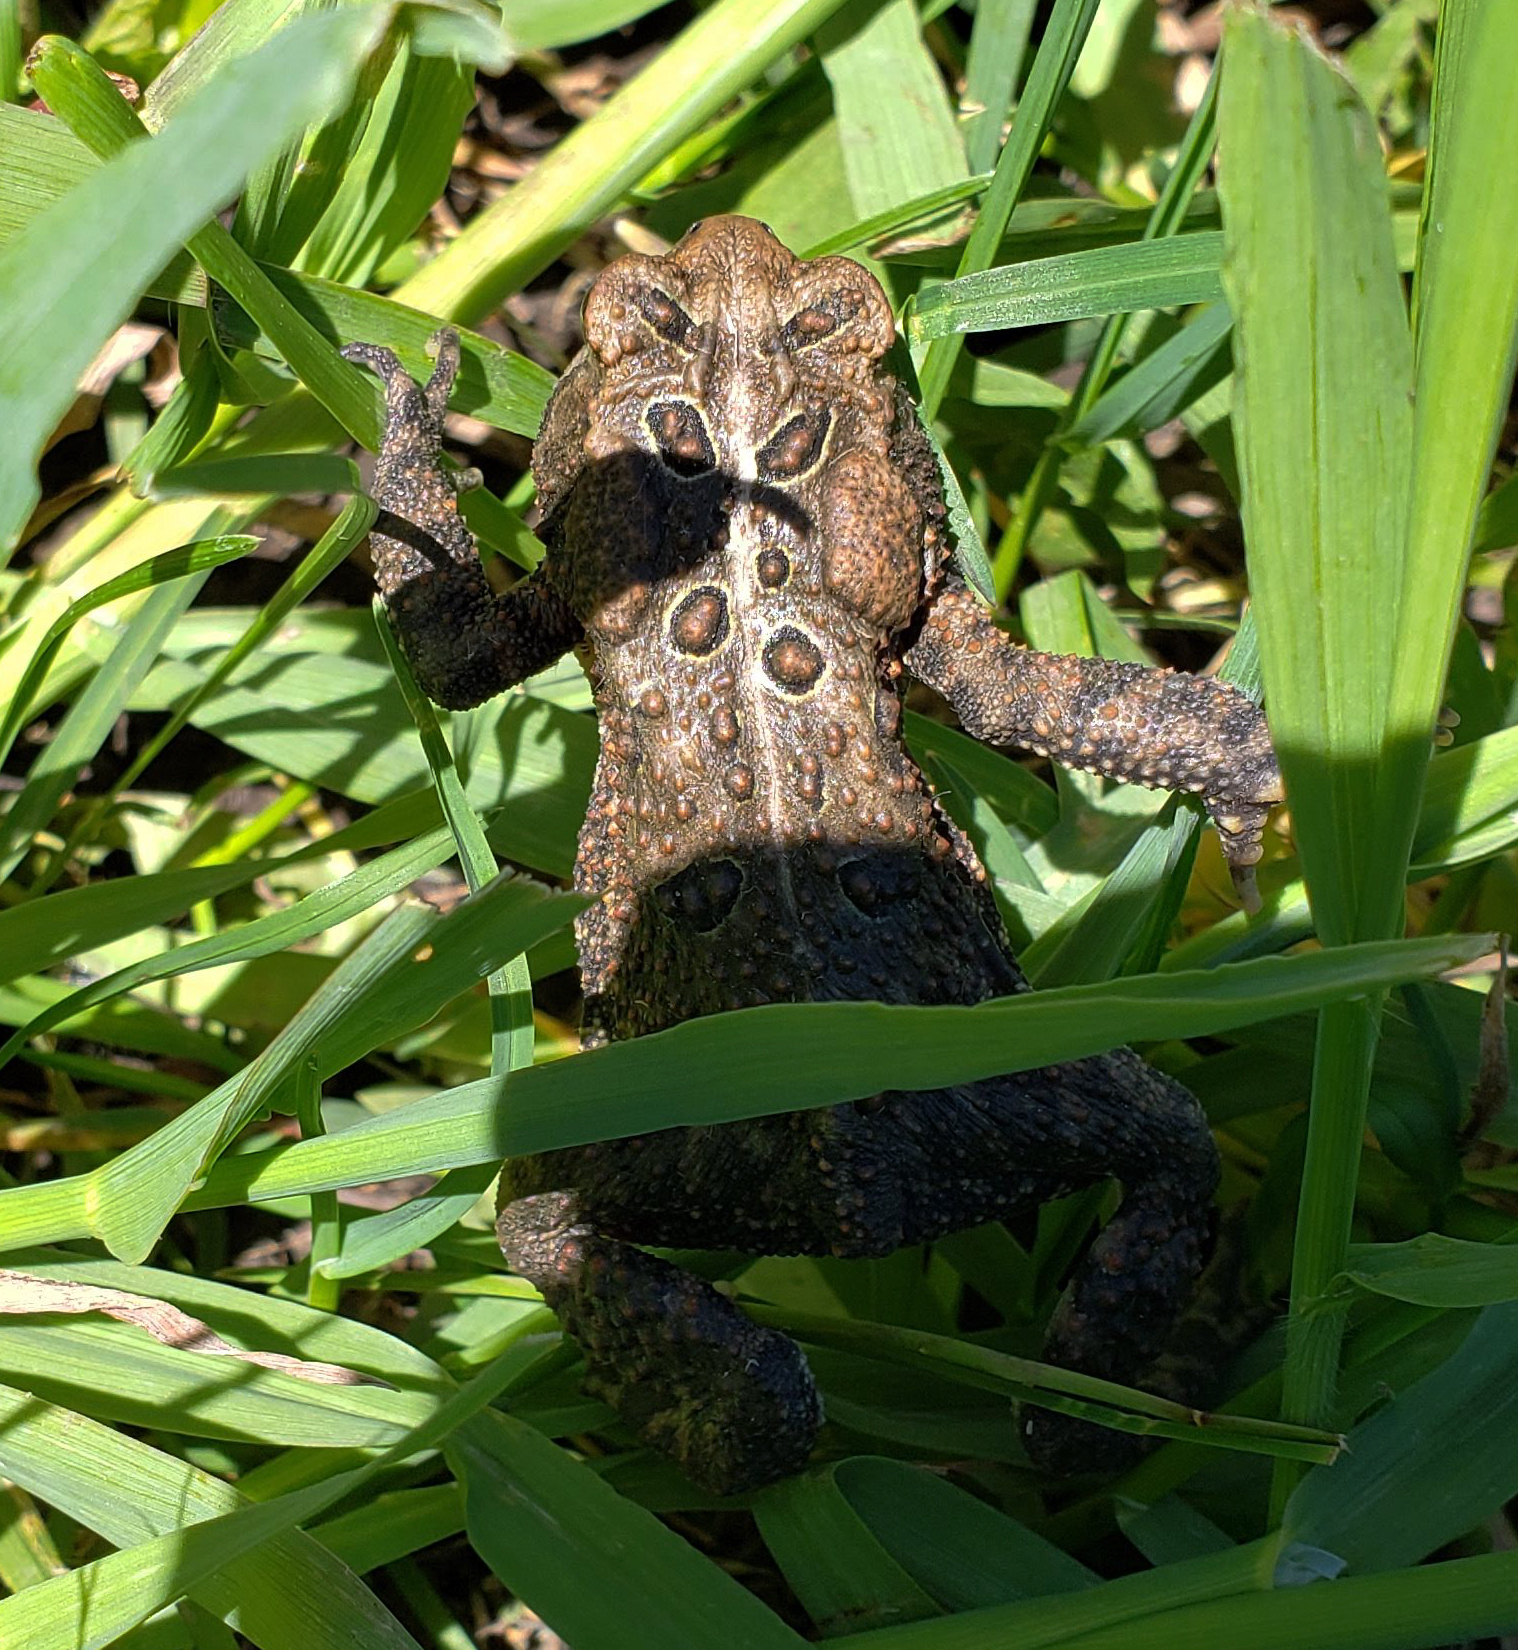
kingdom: Animalia
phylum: Chordata
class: Amphibia
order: Anura
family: Bufonidae
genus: Anaxyrus
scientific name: Anaxyrus americanus
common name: American toad
